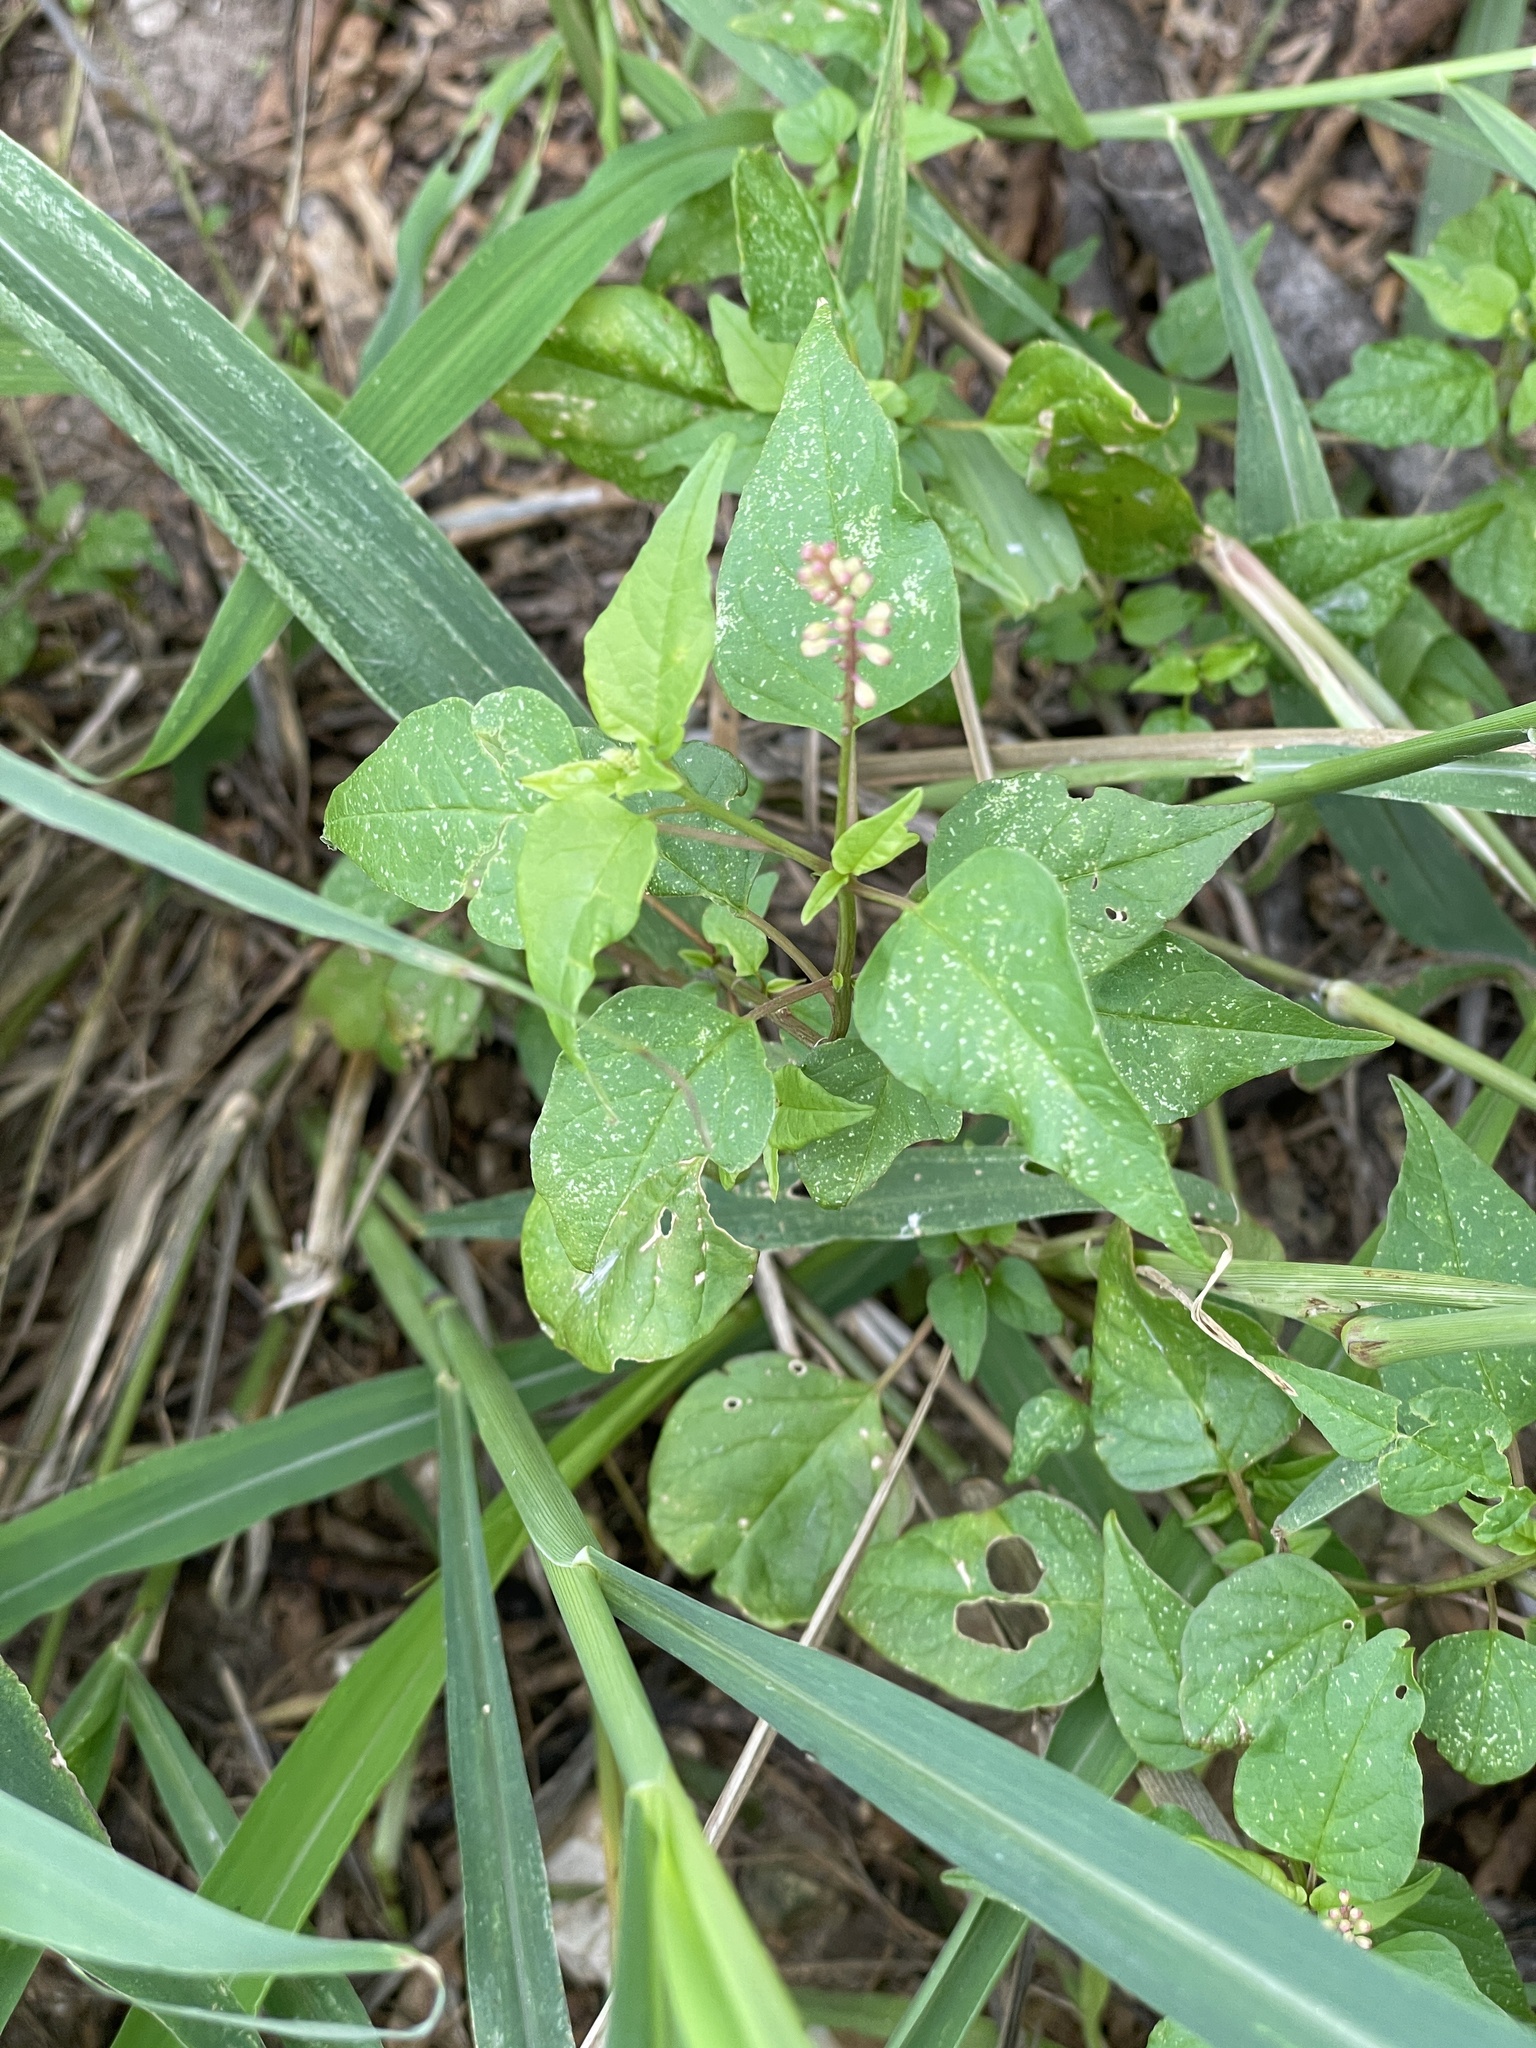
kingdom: Plantae
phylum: Tracheophyta
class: Magnoliopsida
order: Caryophyllales
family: Phytolaccaceae
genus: Rivina
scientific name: Rivina humilis
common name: Rougeplant
